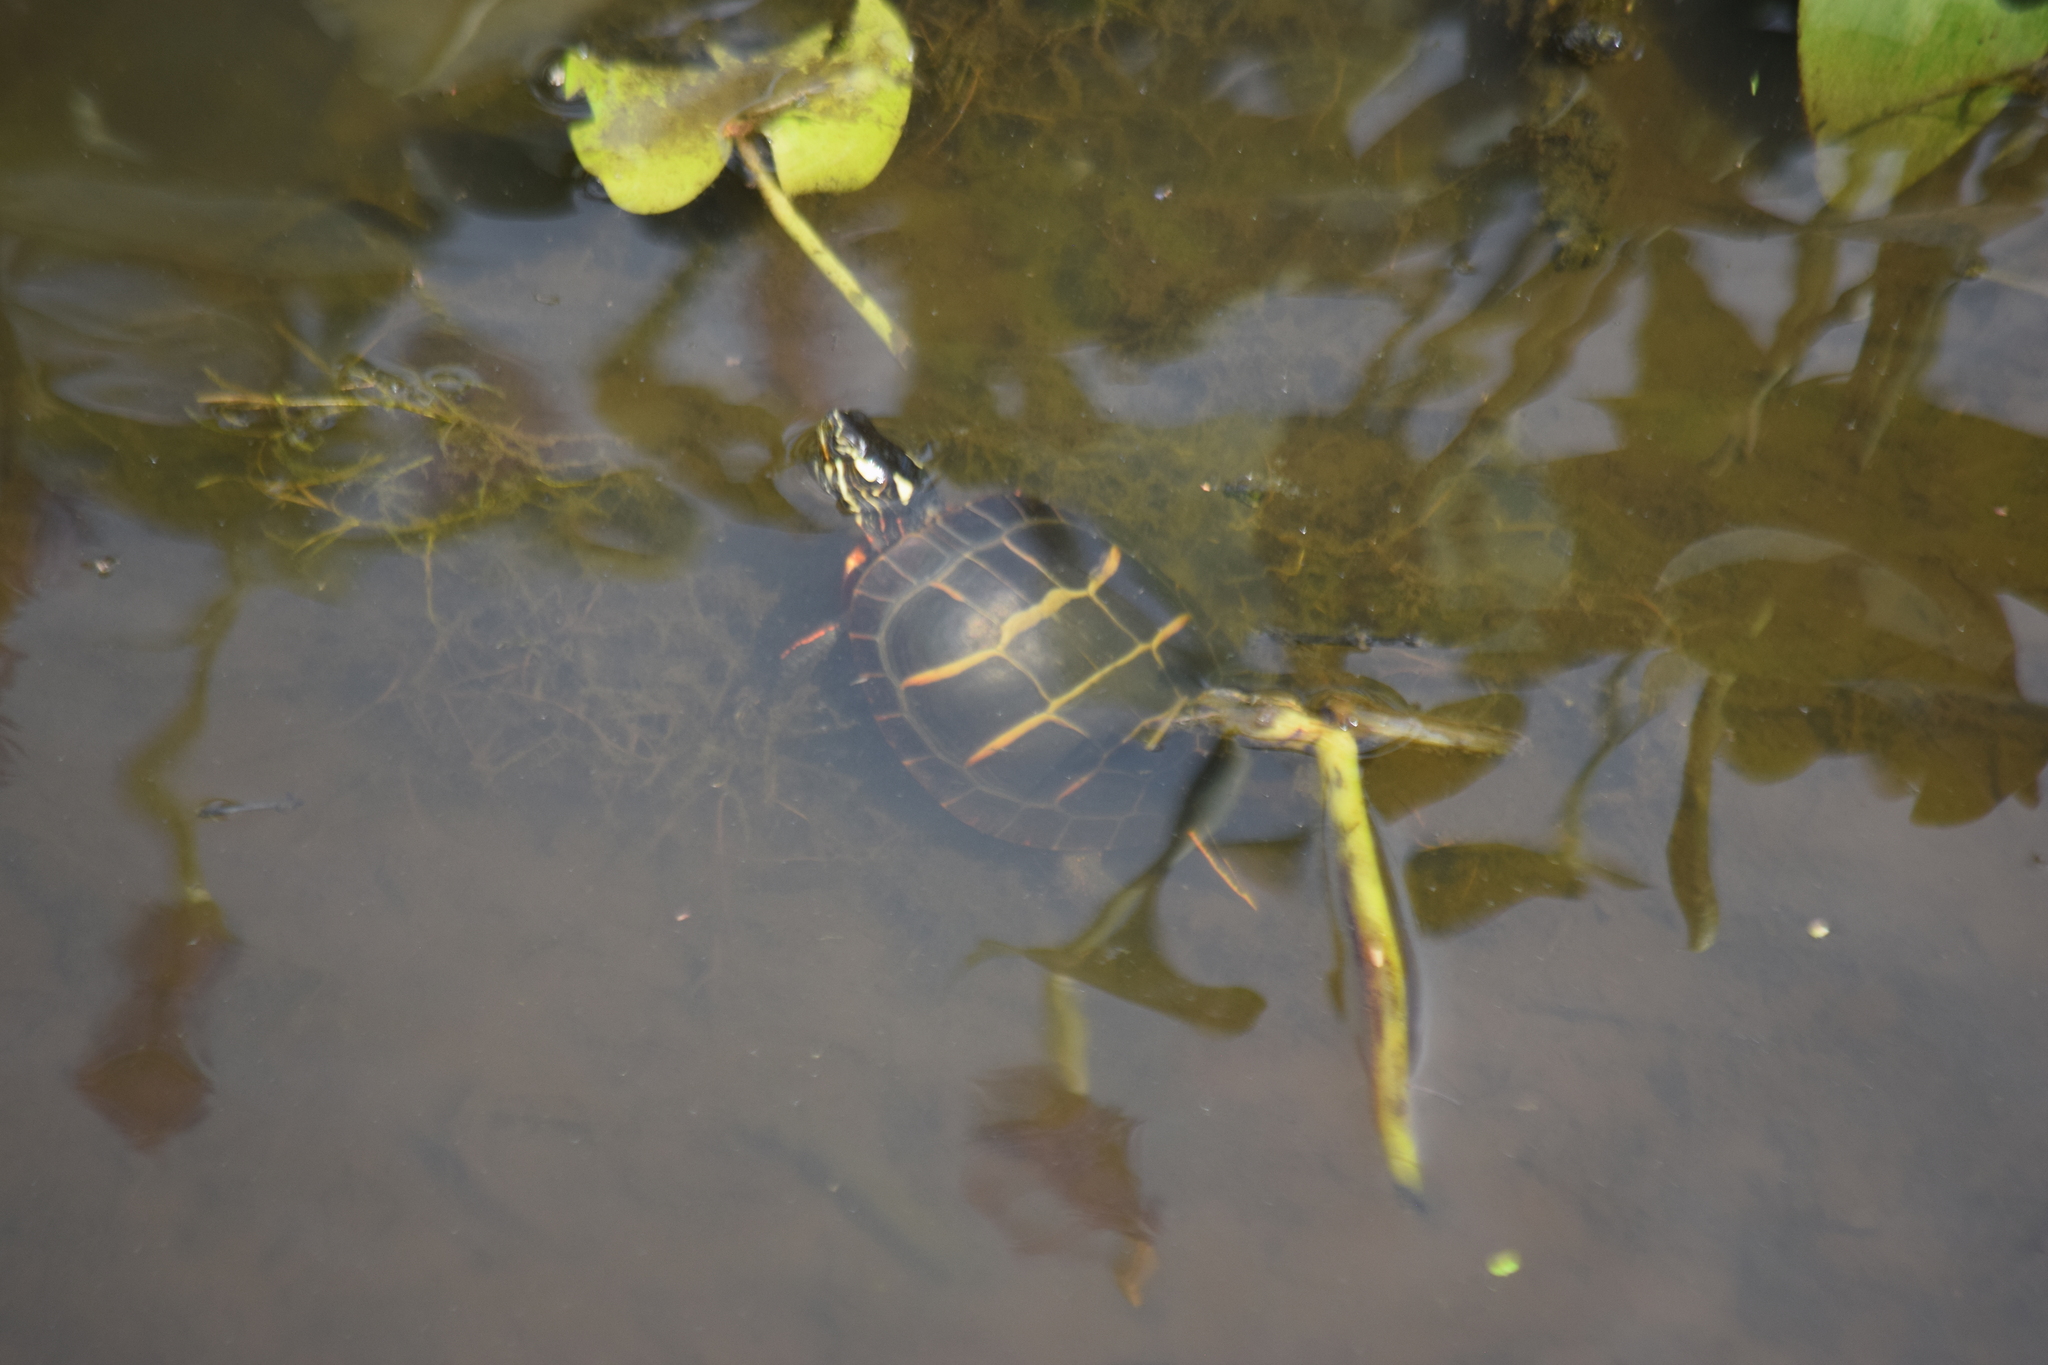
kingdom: Animalia
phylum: Chordata
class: Testudines
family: Emydidae
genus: Chrysemys
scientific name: Chrysemys picta
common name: Painted turtle
